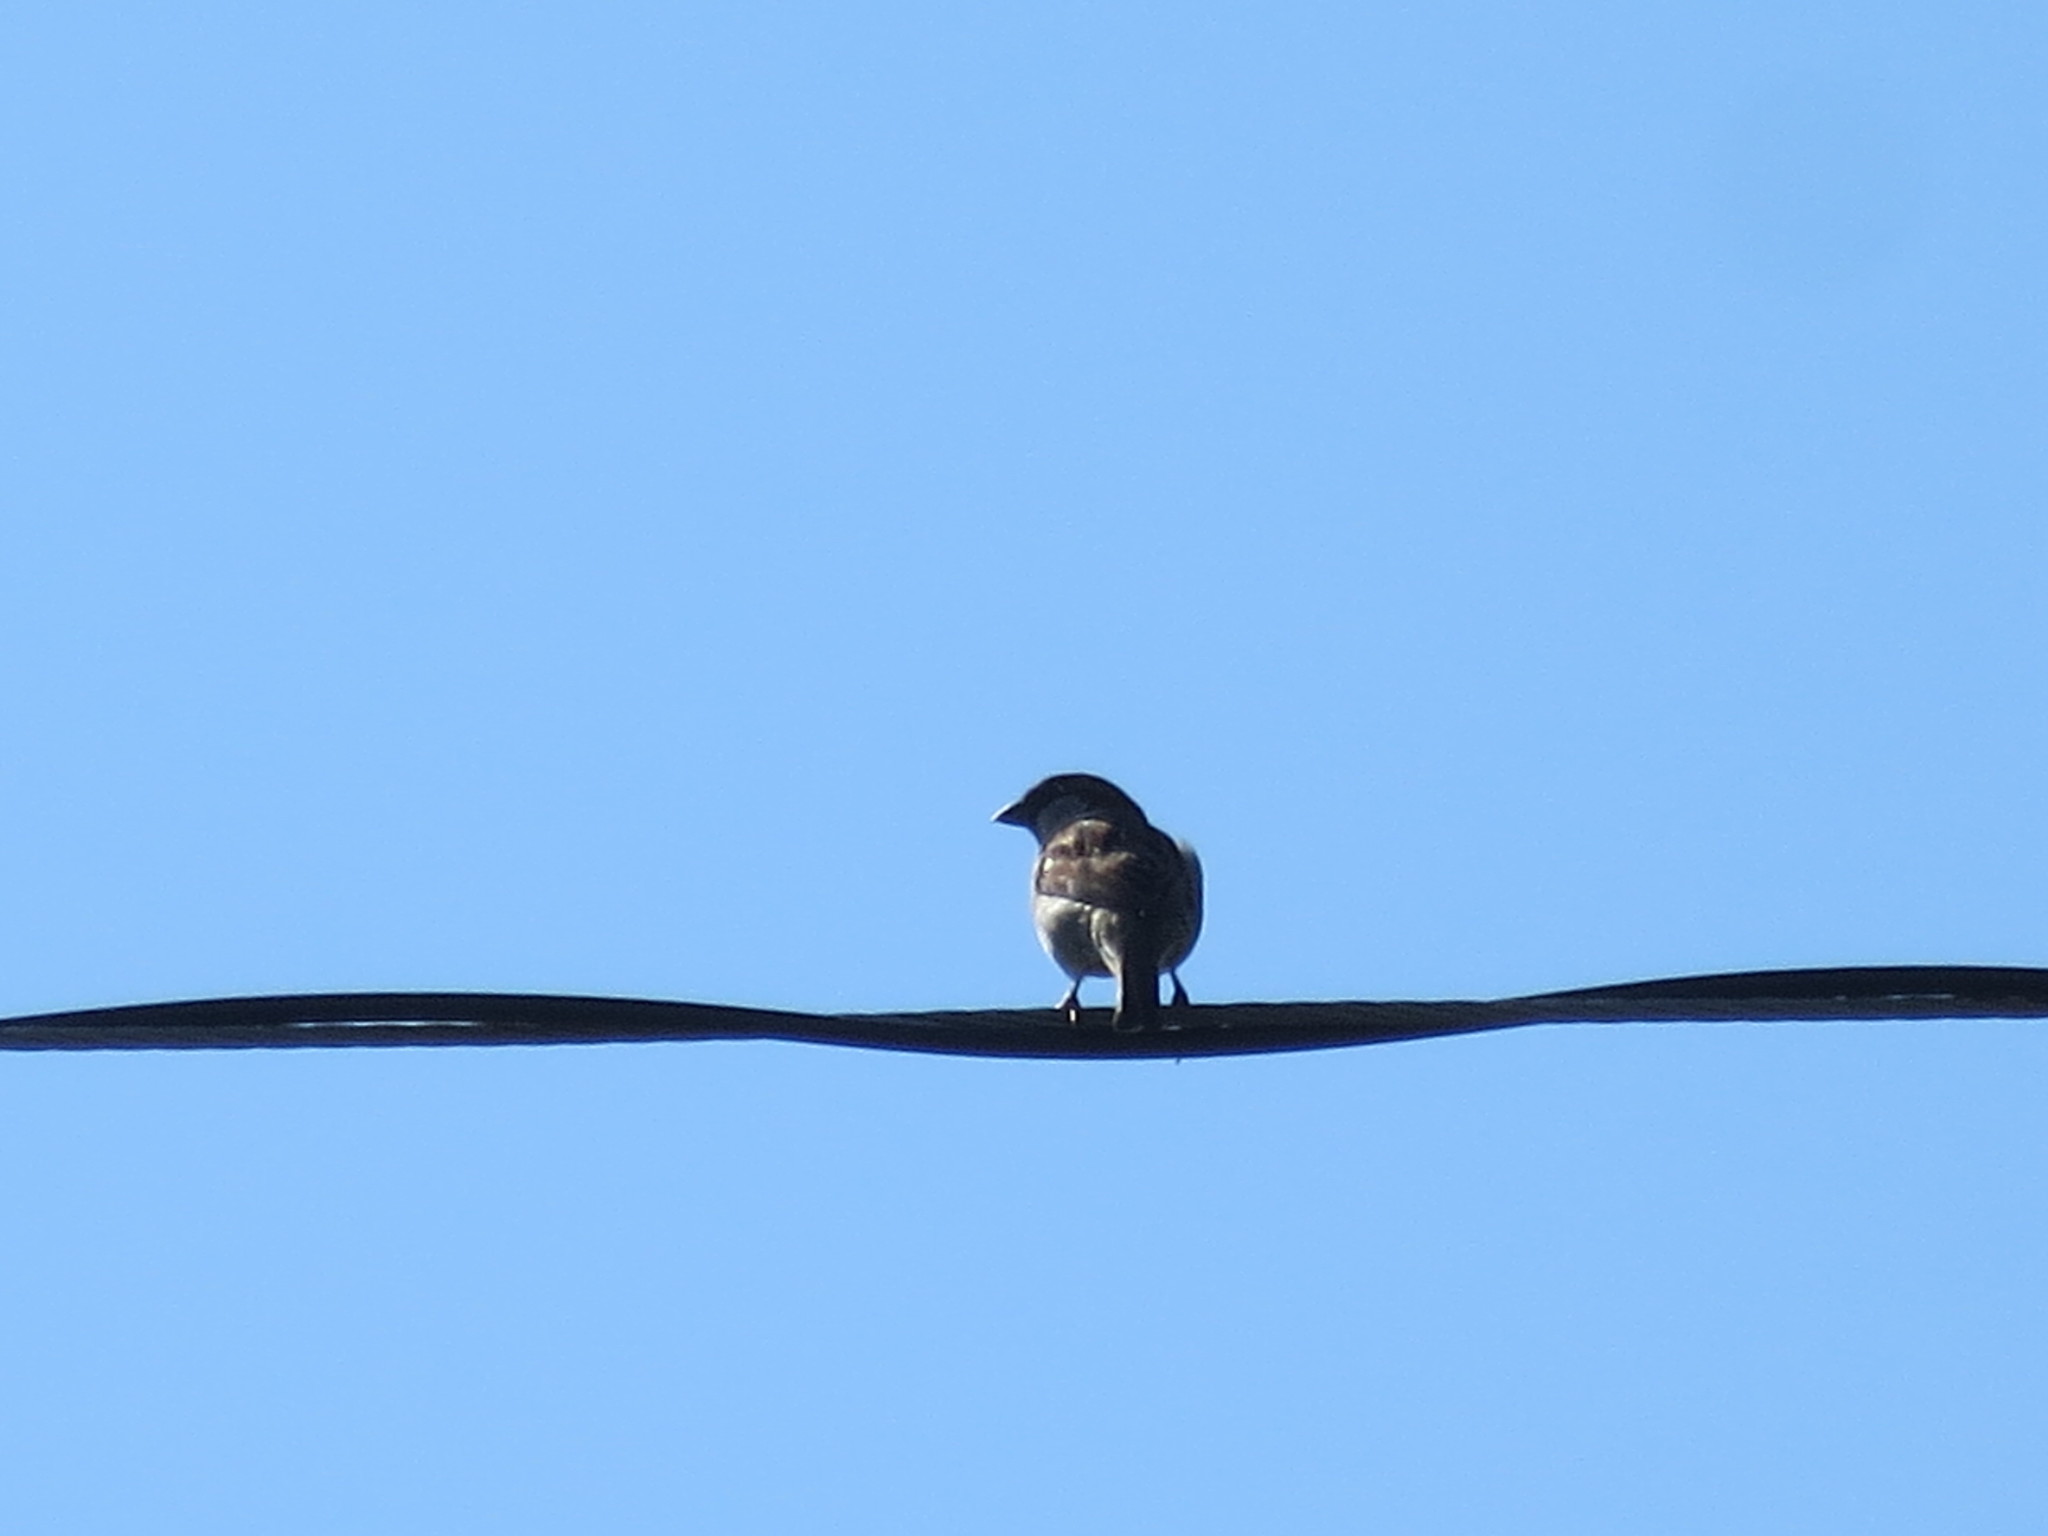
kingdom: Animalia
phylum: Chordata
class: Aves
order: Passeriformes
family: Passeridae
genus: Passer
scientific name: Passer domesticus
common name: House sparrow
